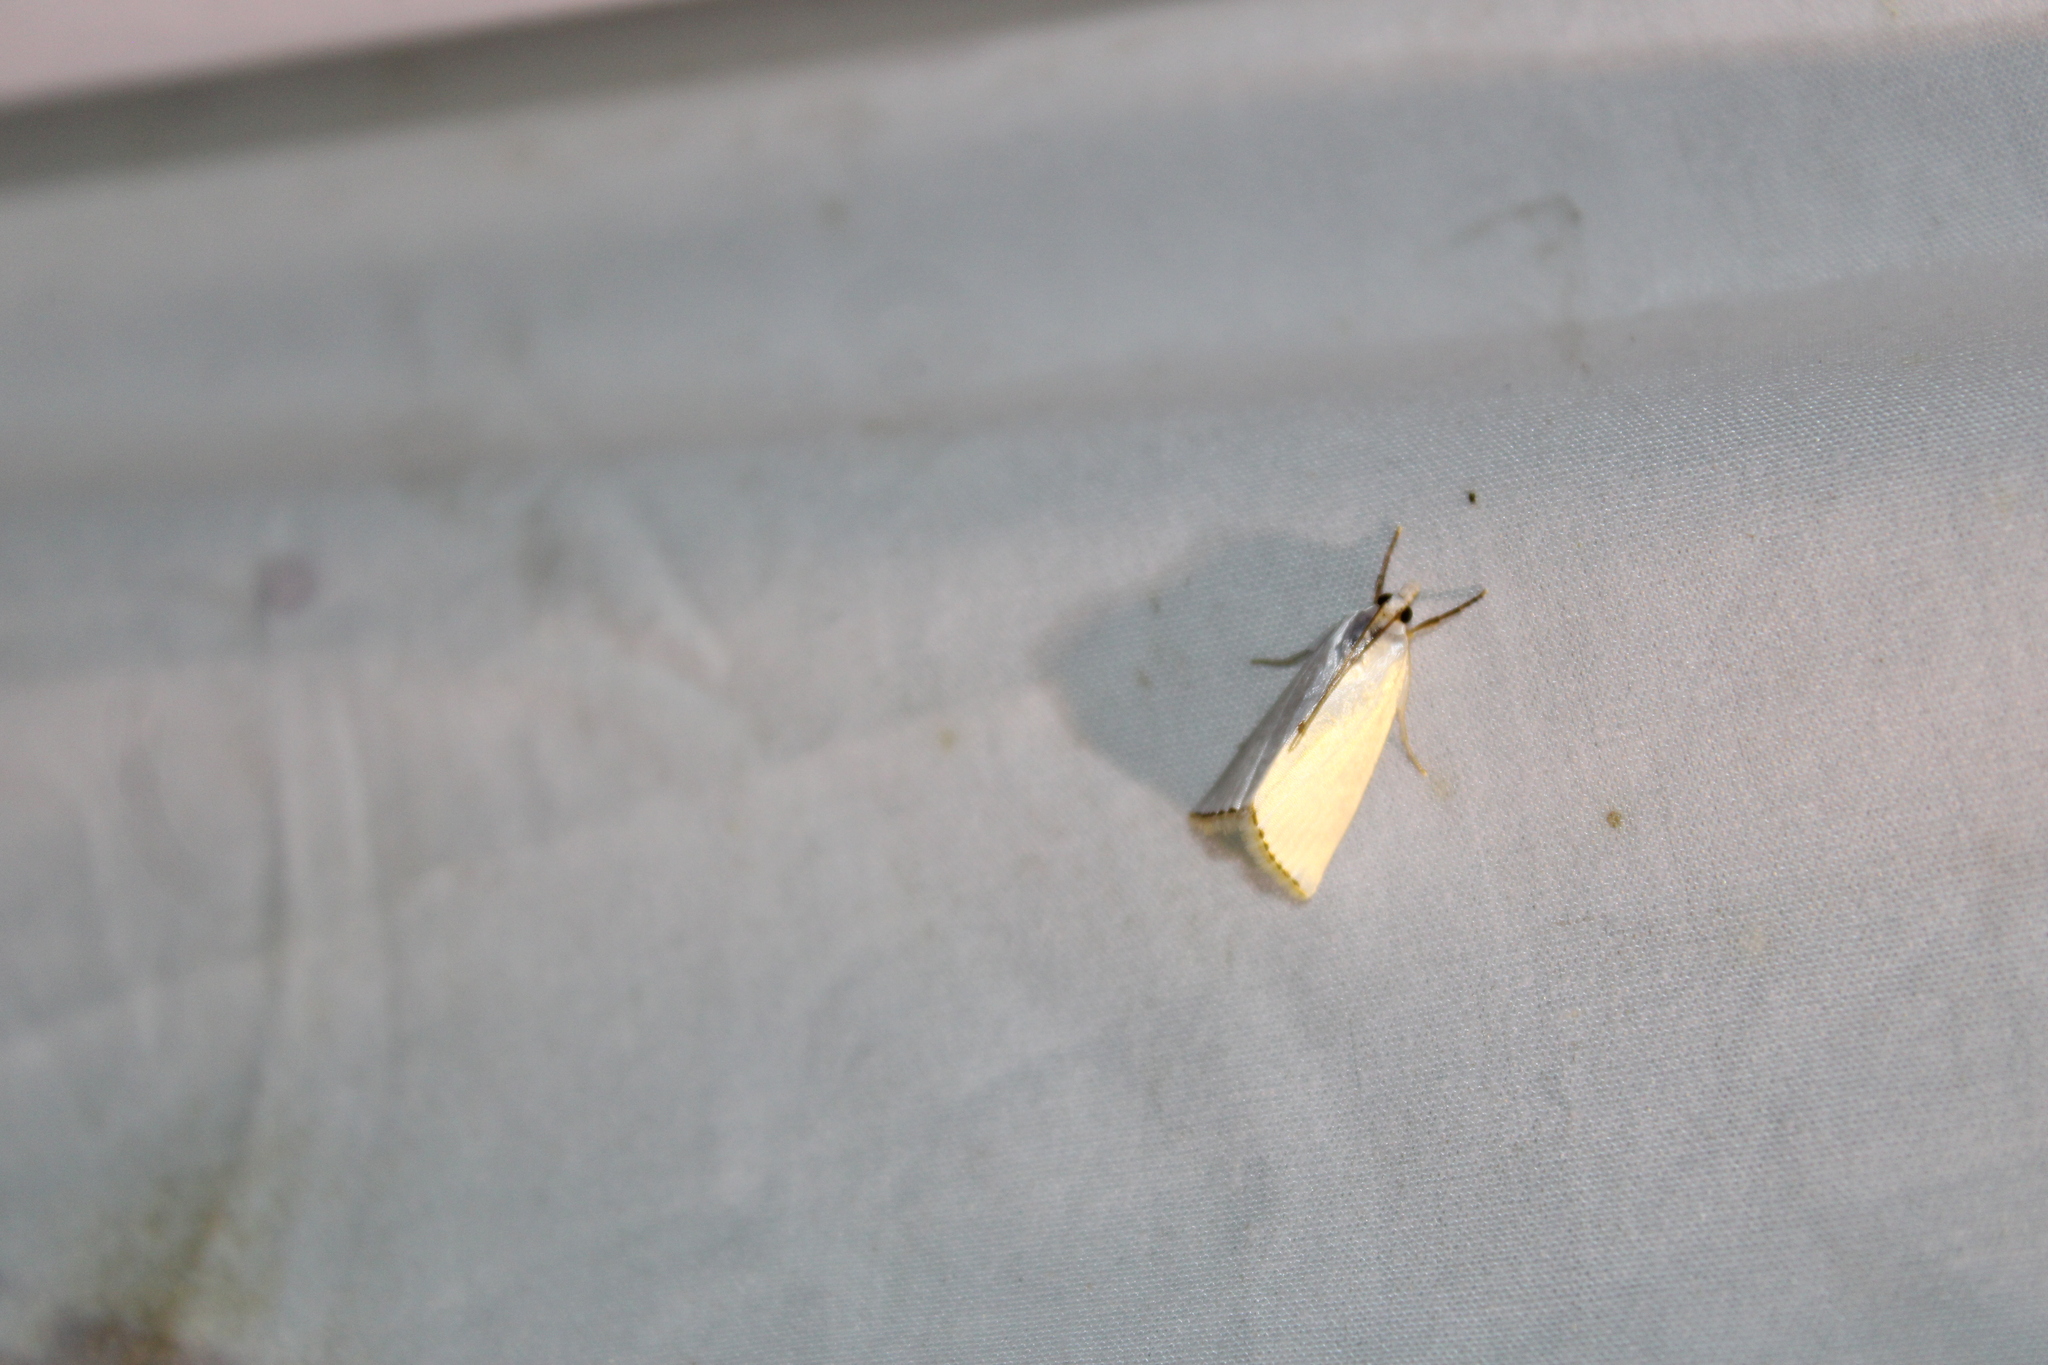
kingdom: Animalia
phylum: Arthropoda
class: Insecta
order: Lepidoptera
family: Crambidae
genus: Argyria
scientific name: Argyria nivalis
